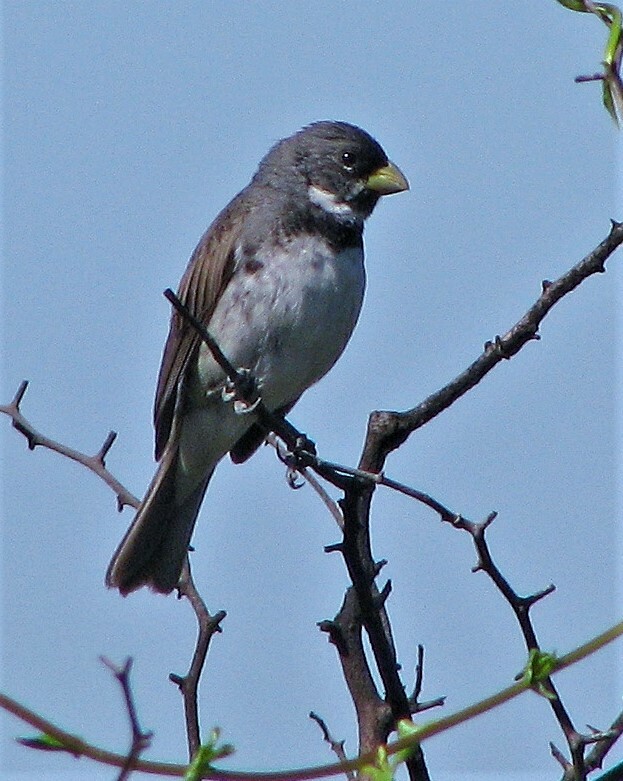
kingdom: Animalia
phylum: Chordata
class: Aves
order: Passeriformes
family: Thraupidae
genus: Sporophila
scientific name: Sporophila caerulescens
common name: Double-collared seedeater
